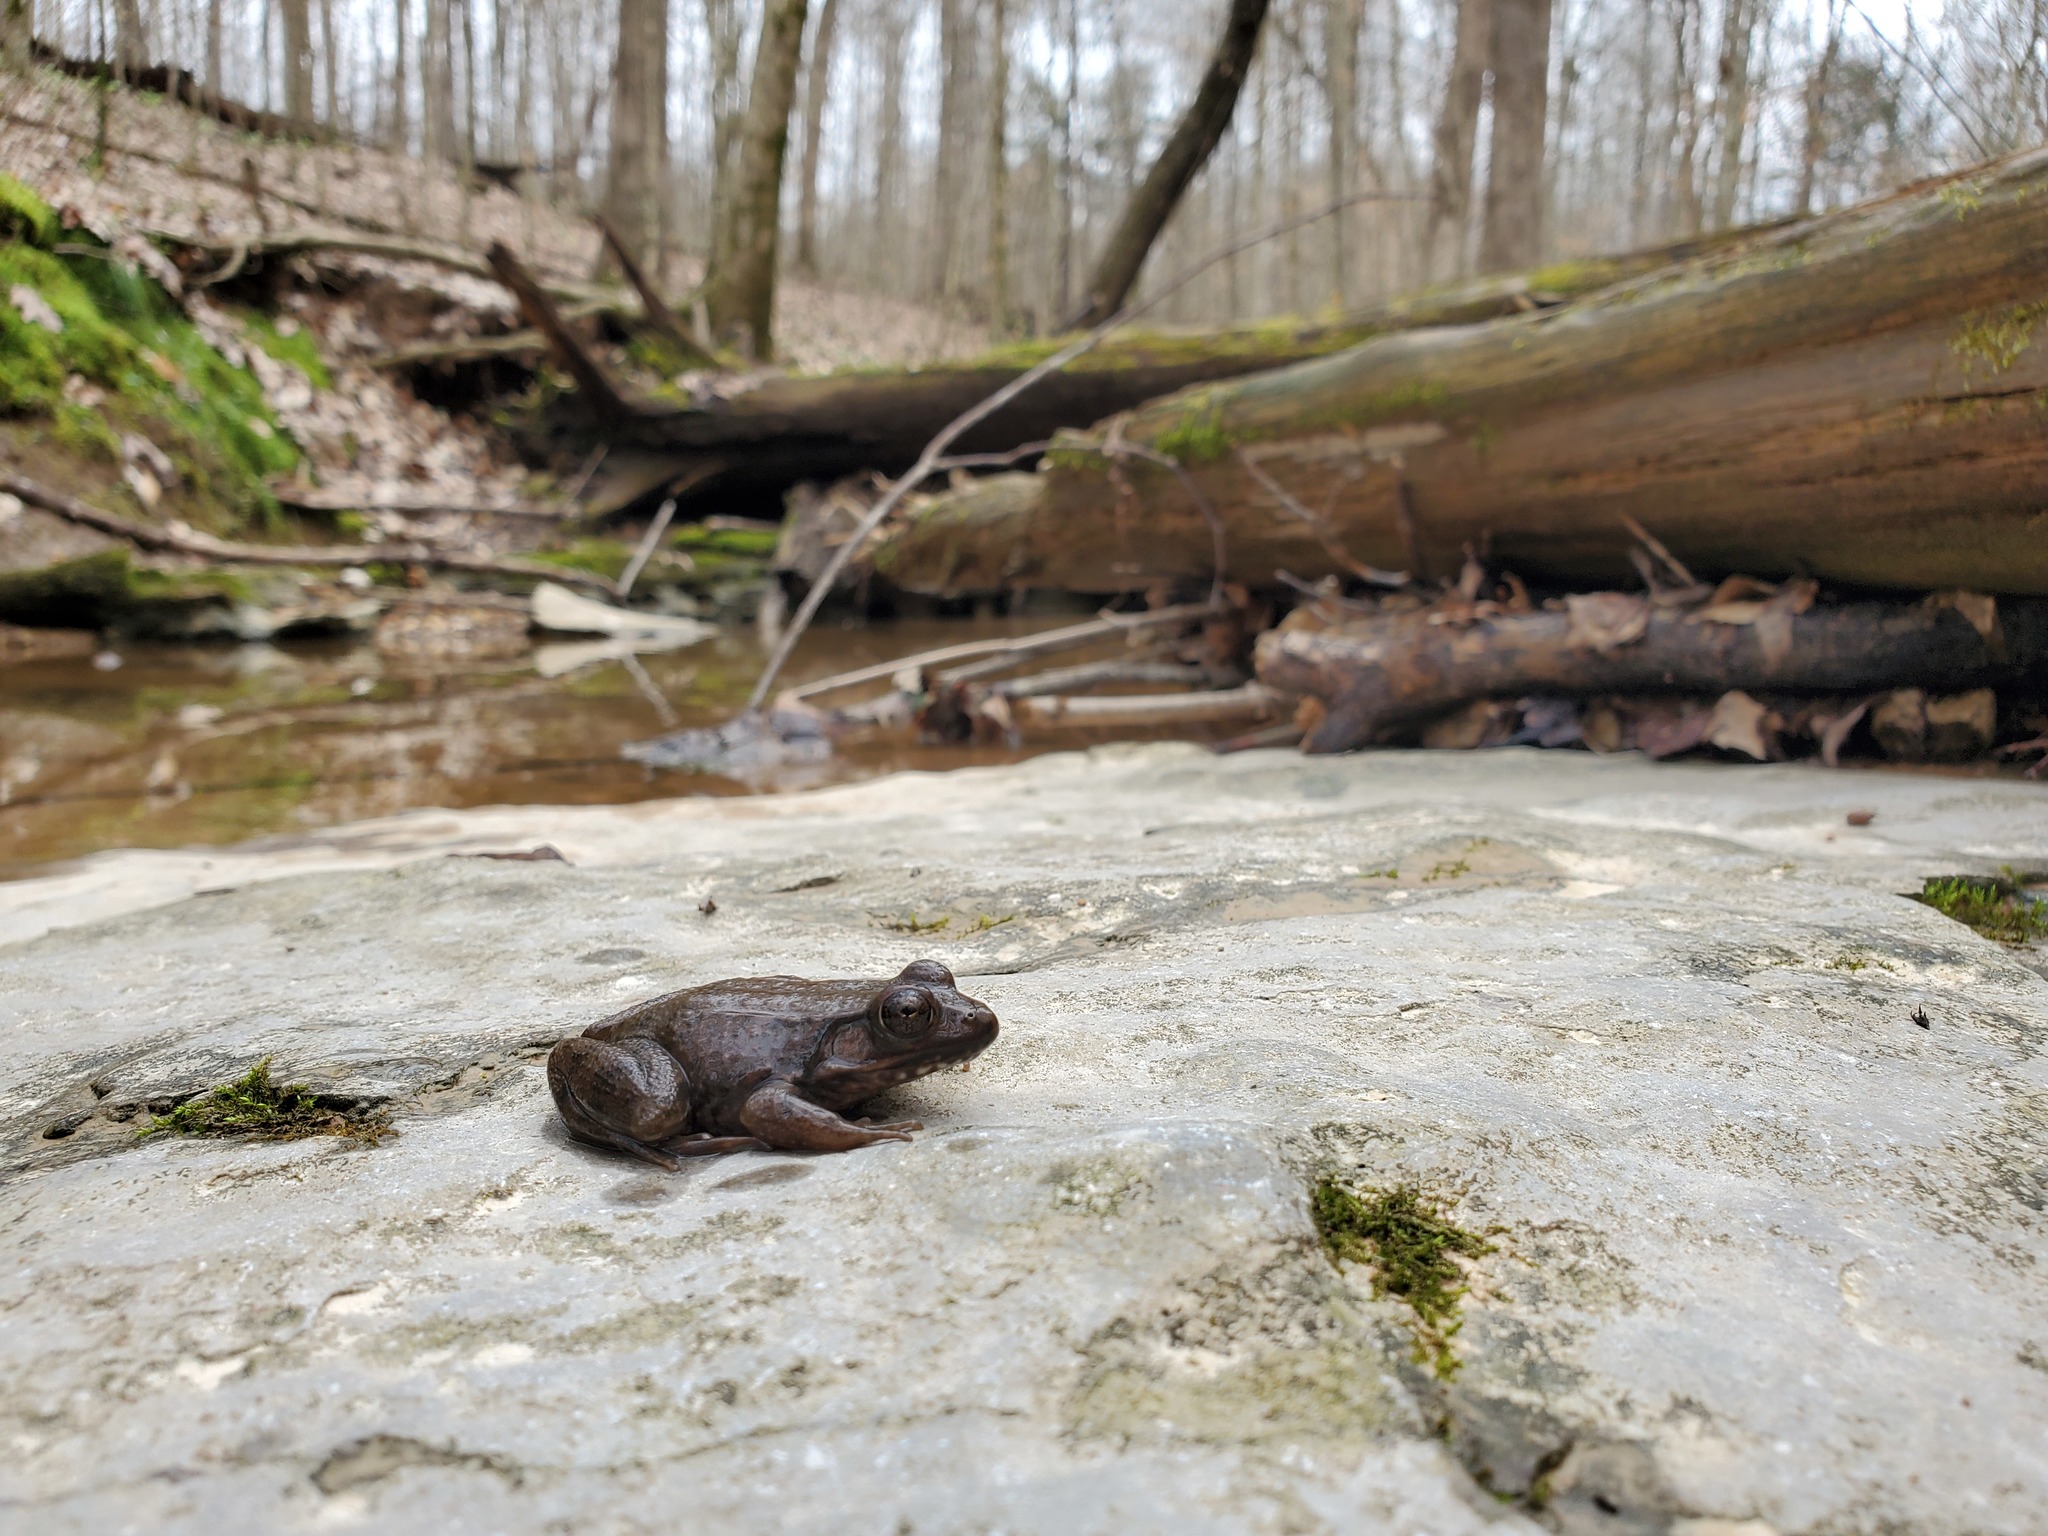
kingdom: Animalia
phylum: Chordata
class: Amphibia
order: Anura
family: Ranidae
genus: Lithobates
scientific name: Lithobates clamitans
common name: Green frog
